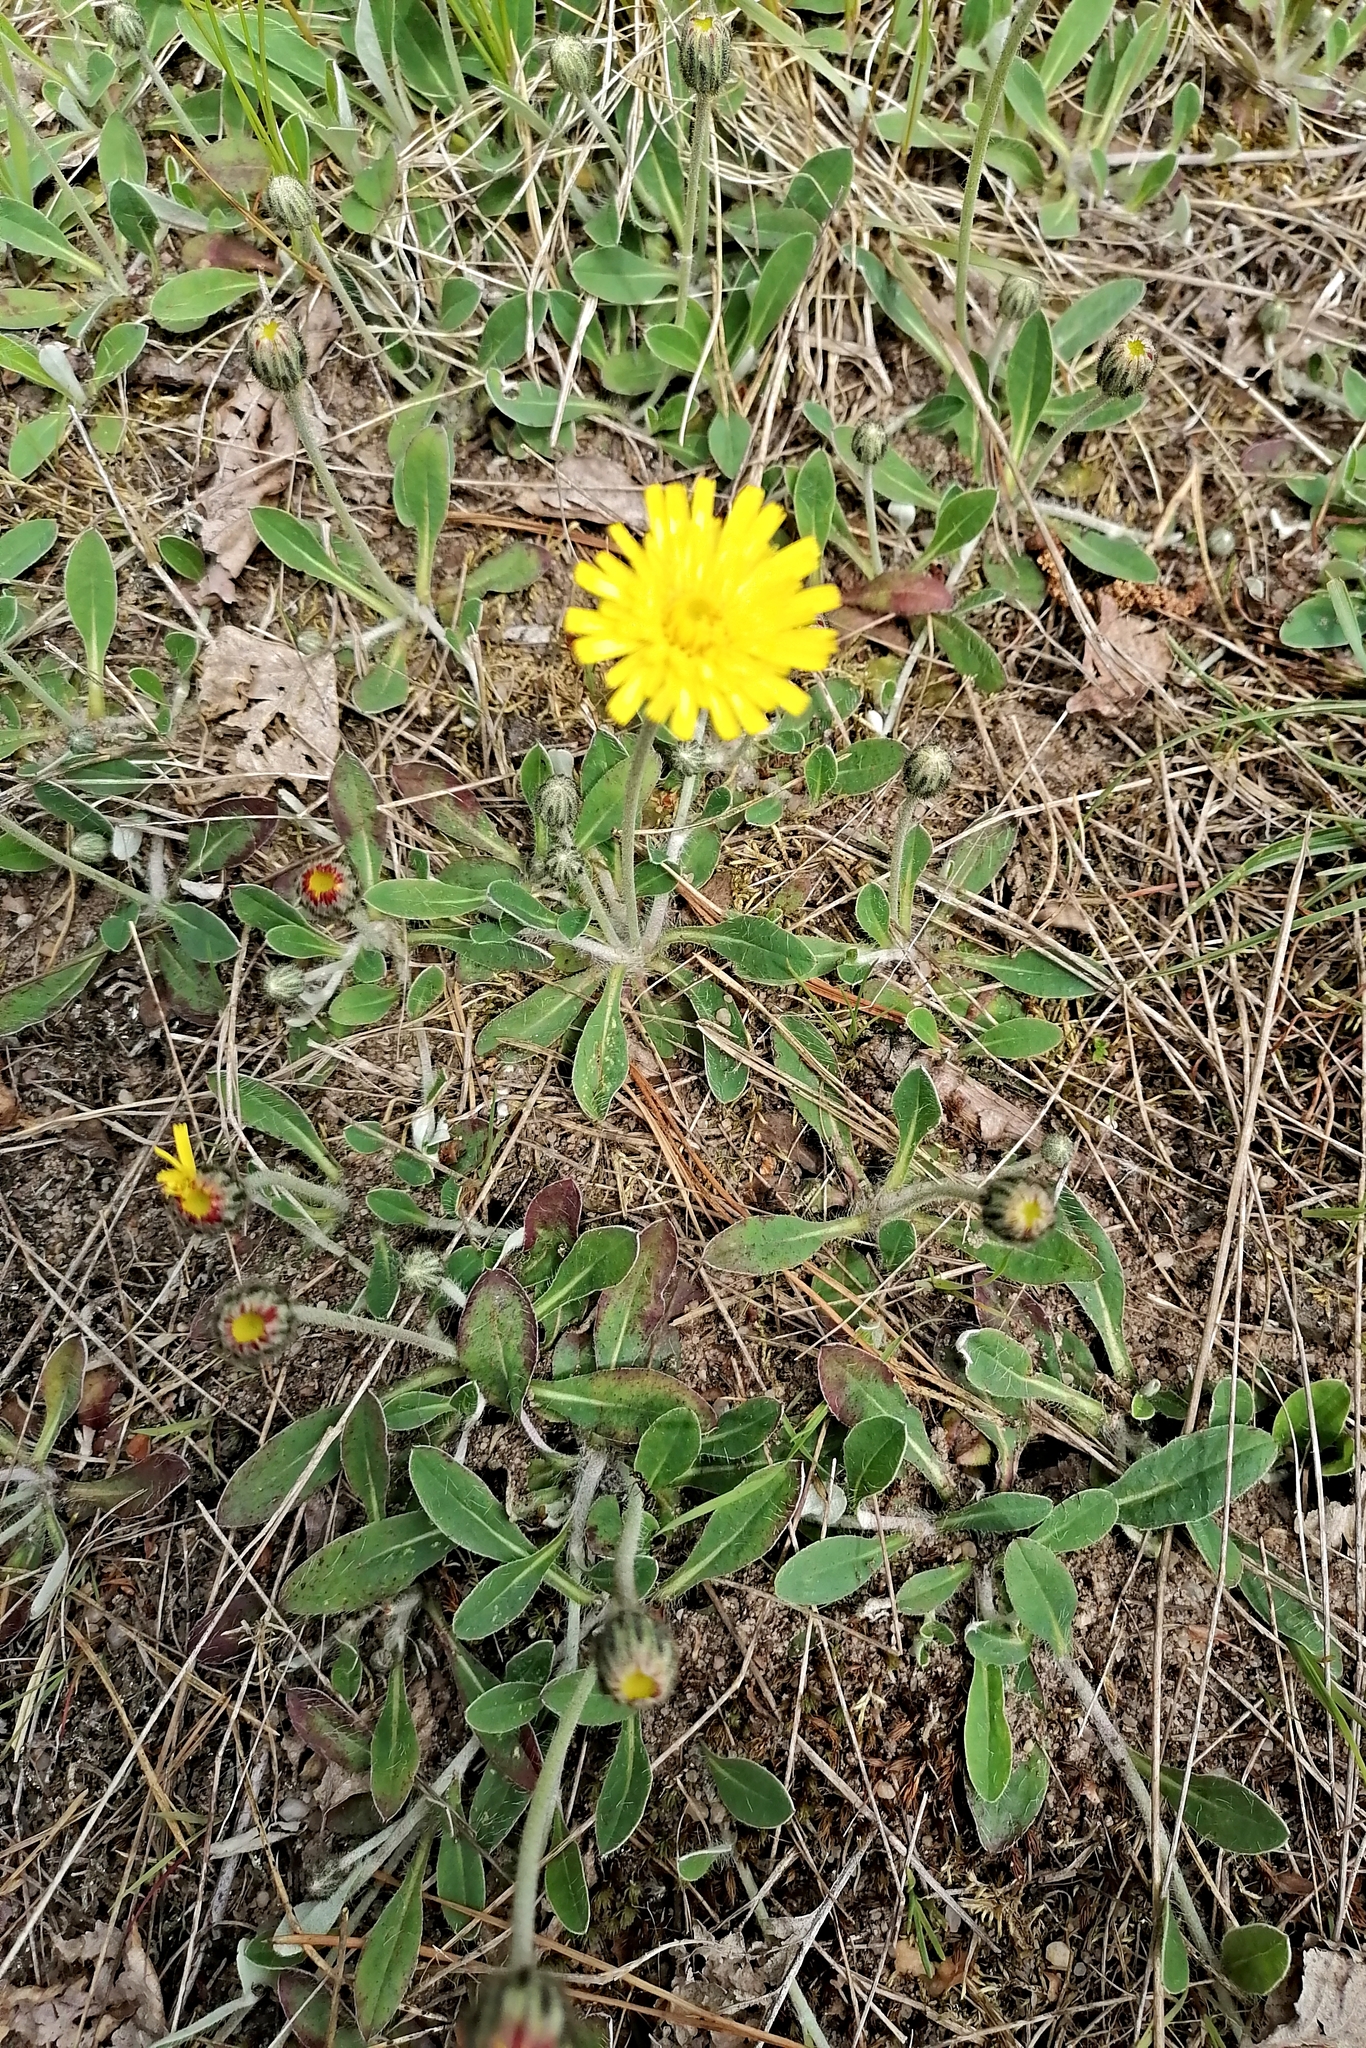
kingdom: Plantae
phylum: Tracheophyta
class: Magnoliopsida
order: Asterales
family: Asteraceae
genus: Pilosella
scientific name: Pilosella officinarum
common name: Mouse-ear hawkweed
